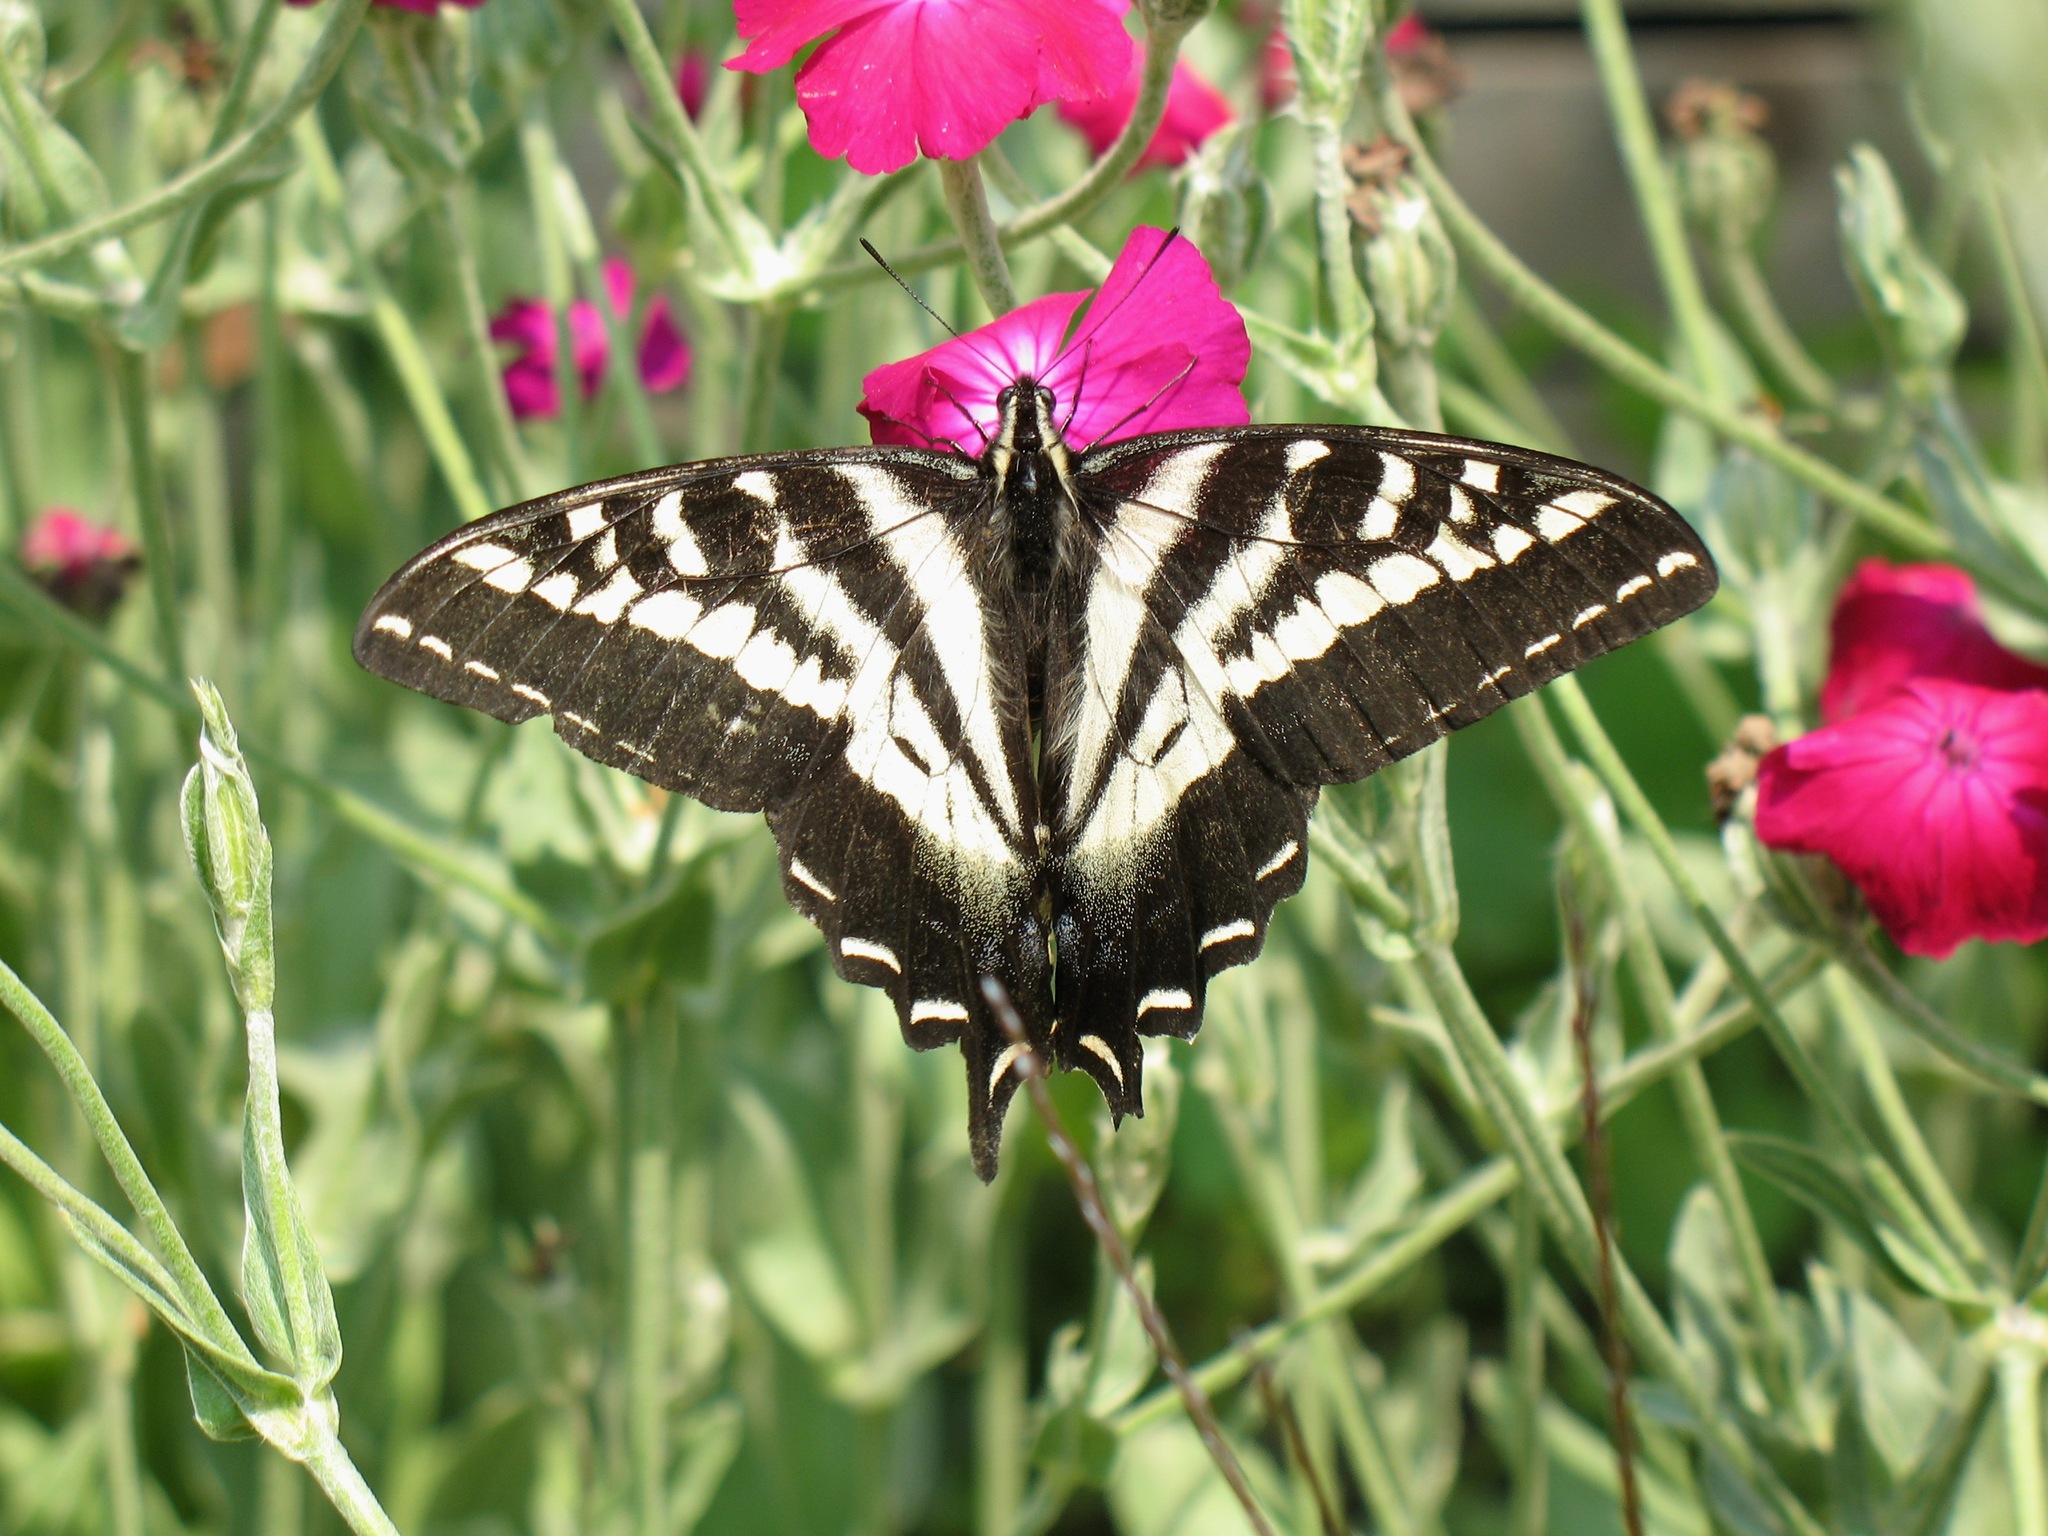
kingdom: Animalia
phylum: Arthropoda
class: Insecta
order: Lepidoptera
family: Papilionidae
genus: Papilio
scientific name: Papilio eurymedon
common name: Pale tiger swallowtail
